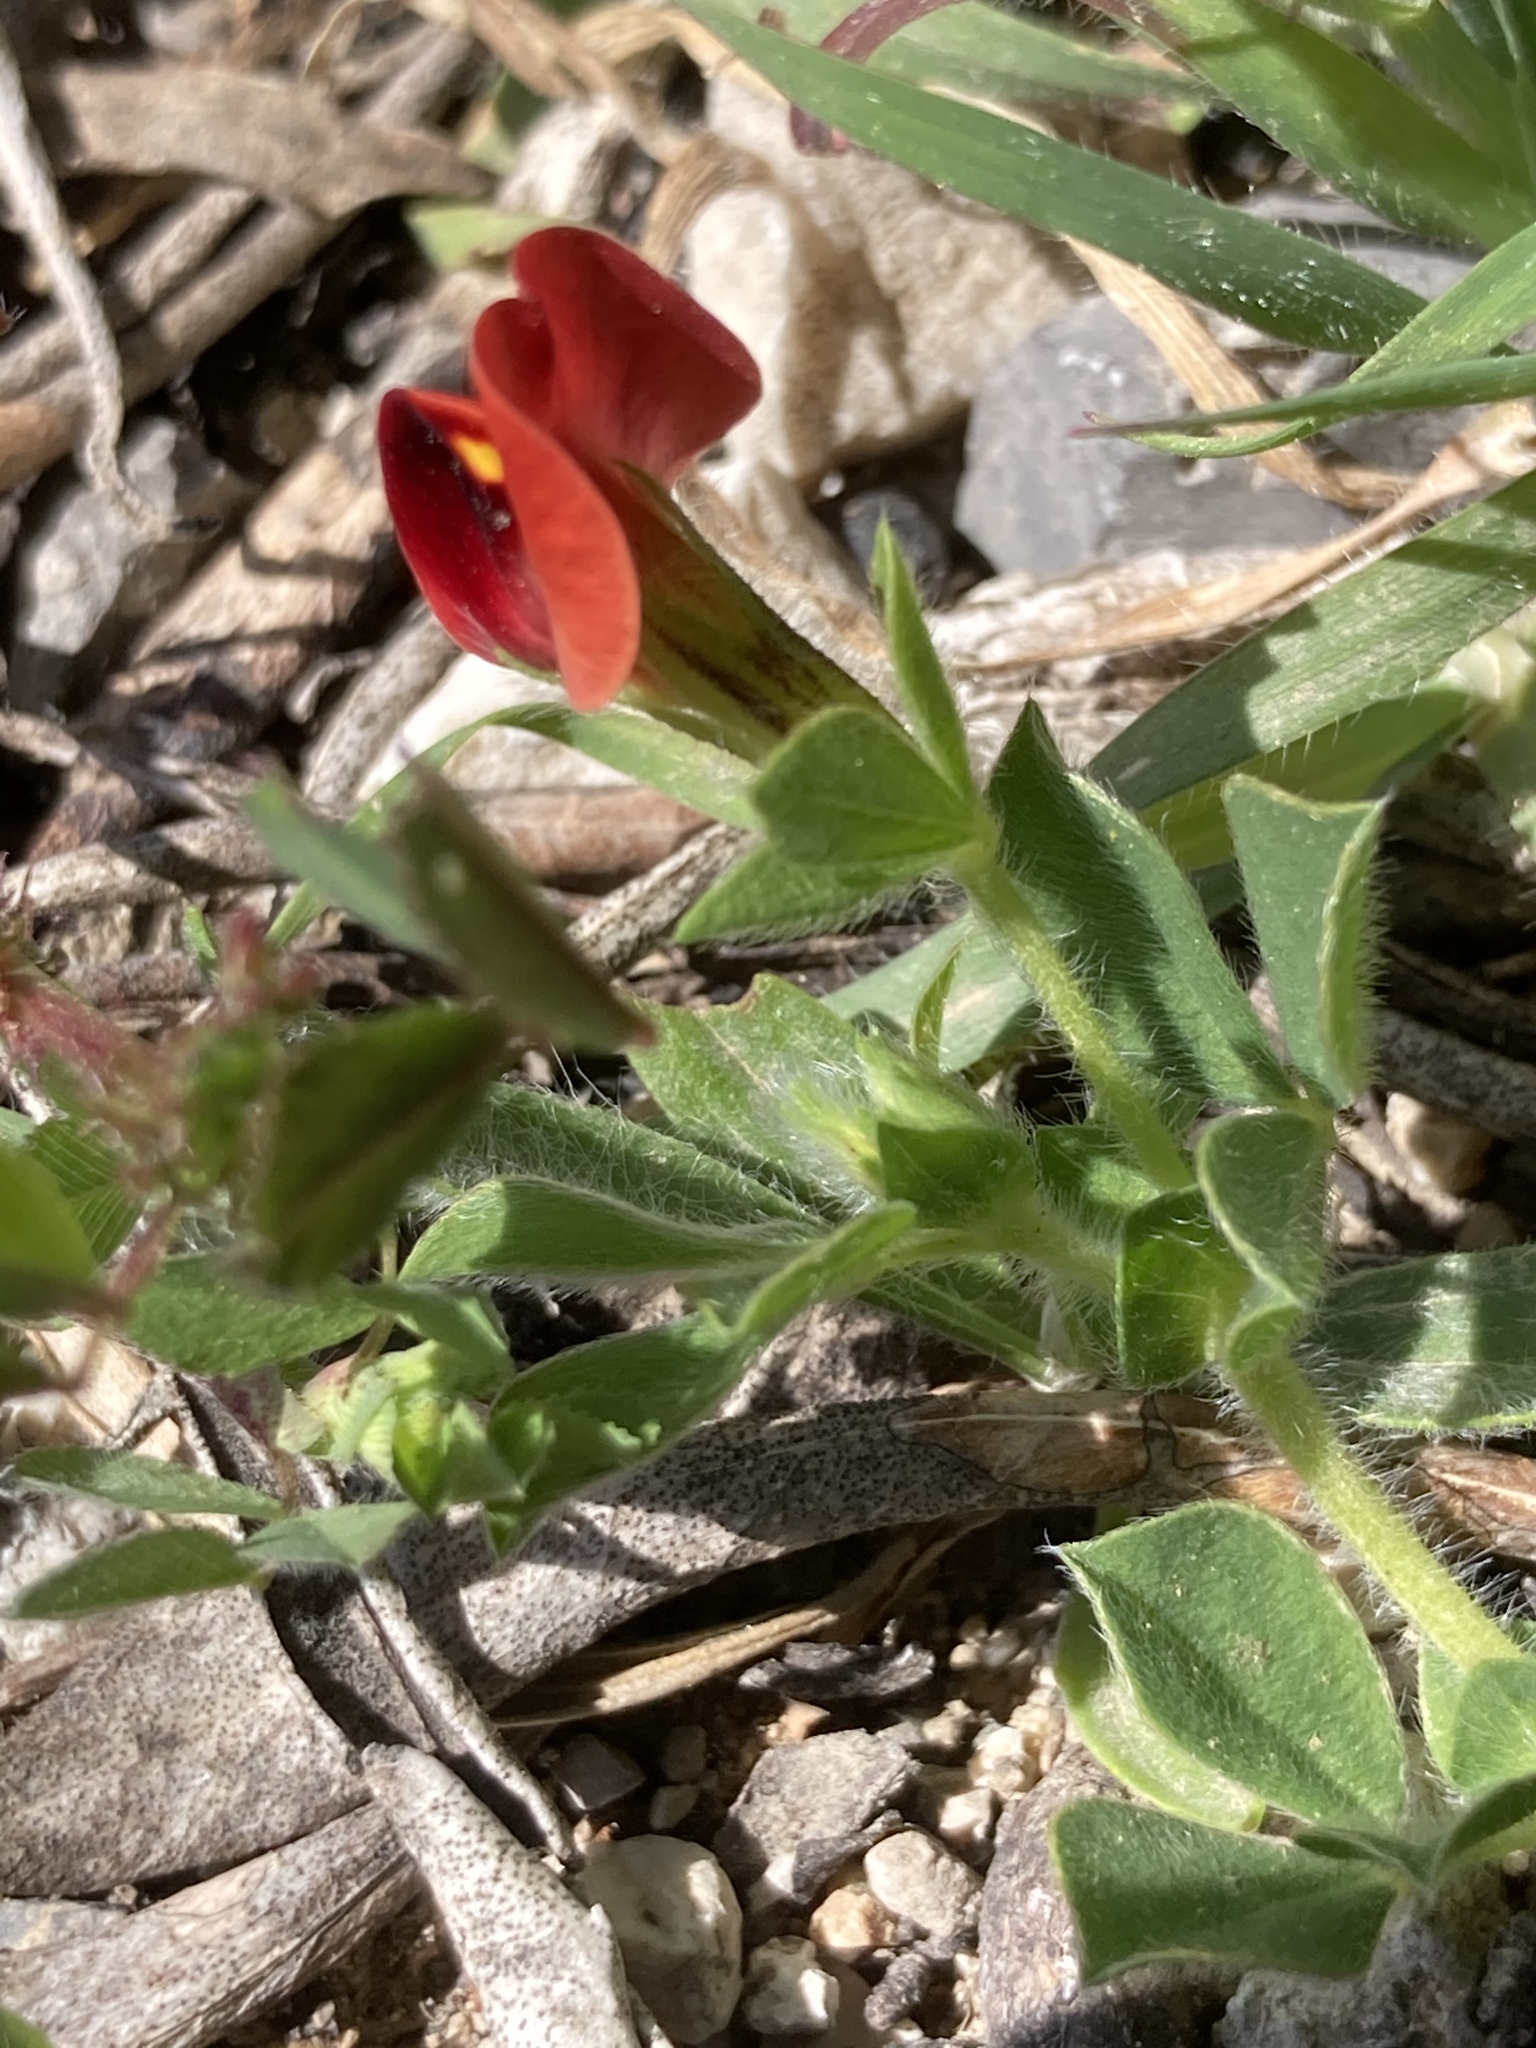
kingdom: Plantae
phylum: Tracheophyta
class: Magnoliopsida
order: Fabales
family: Fabaceae
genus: Lotus
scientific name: Lotus tetragonolobus
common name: Asparagus-pea
